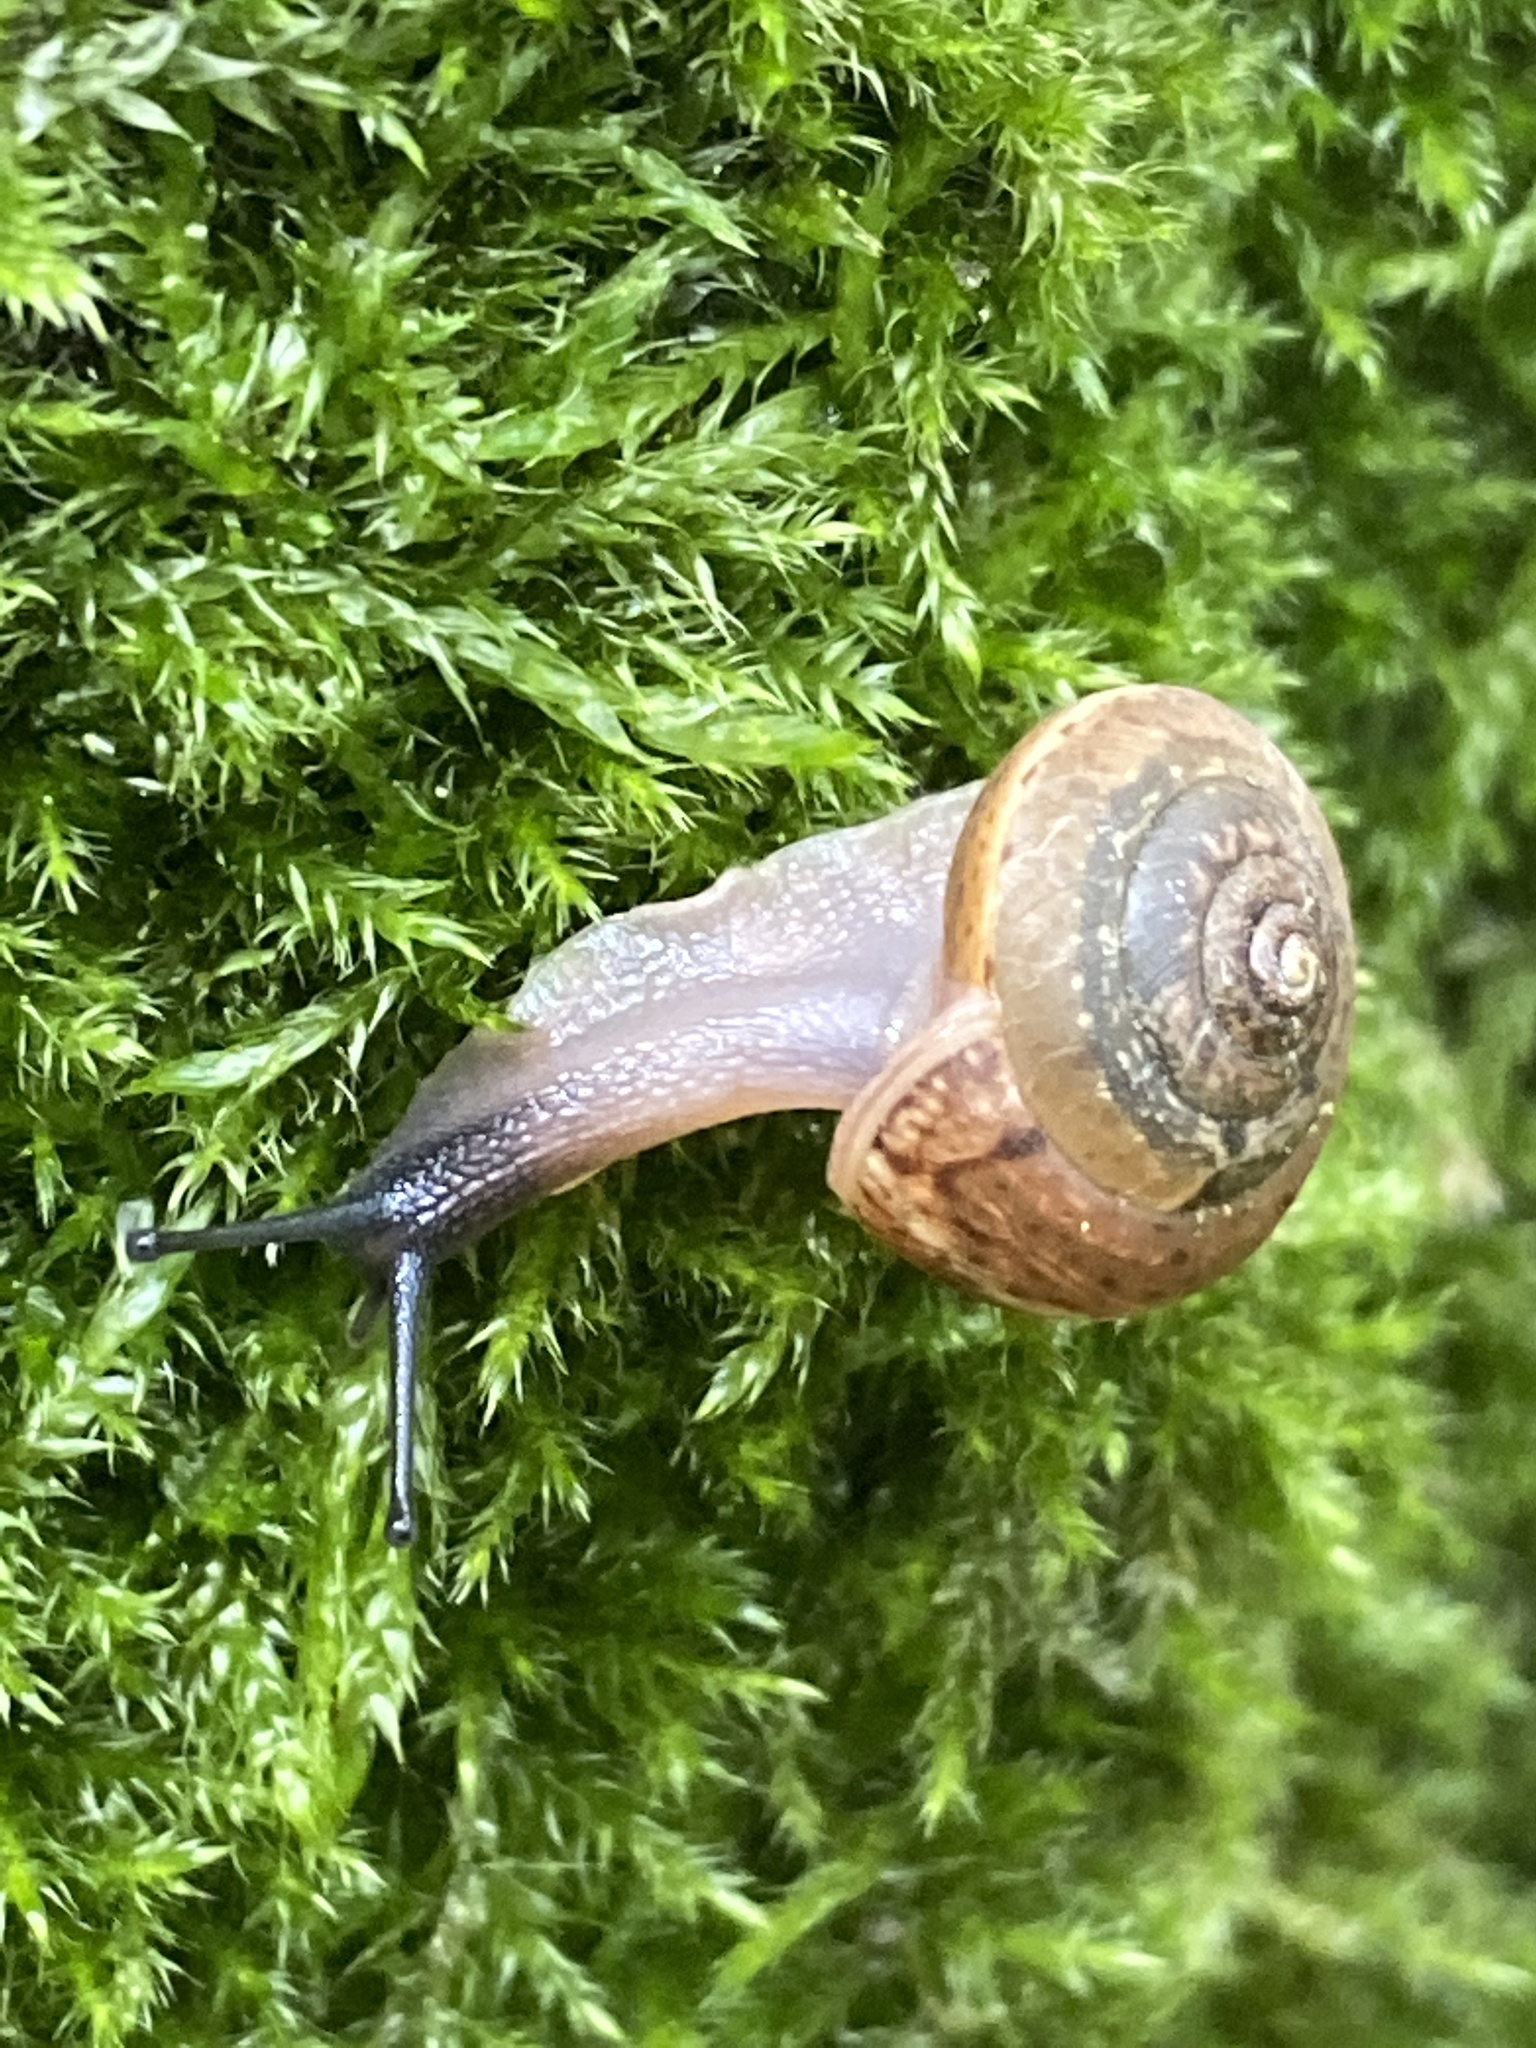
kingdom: Animalia
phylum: Mollusca
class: Gastropoda
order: Stylommatophora
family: Hygromiidae
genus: Monachoides
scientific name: Monachoides incarnatus
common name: Incarnate snail
